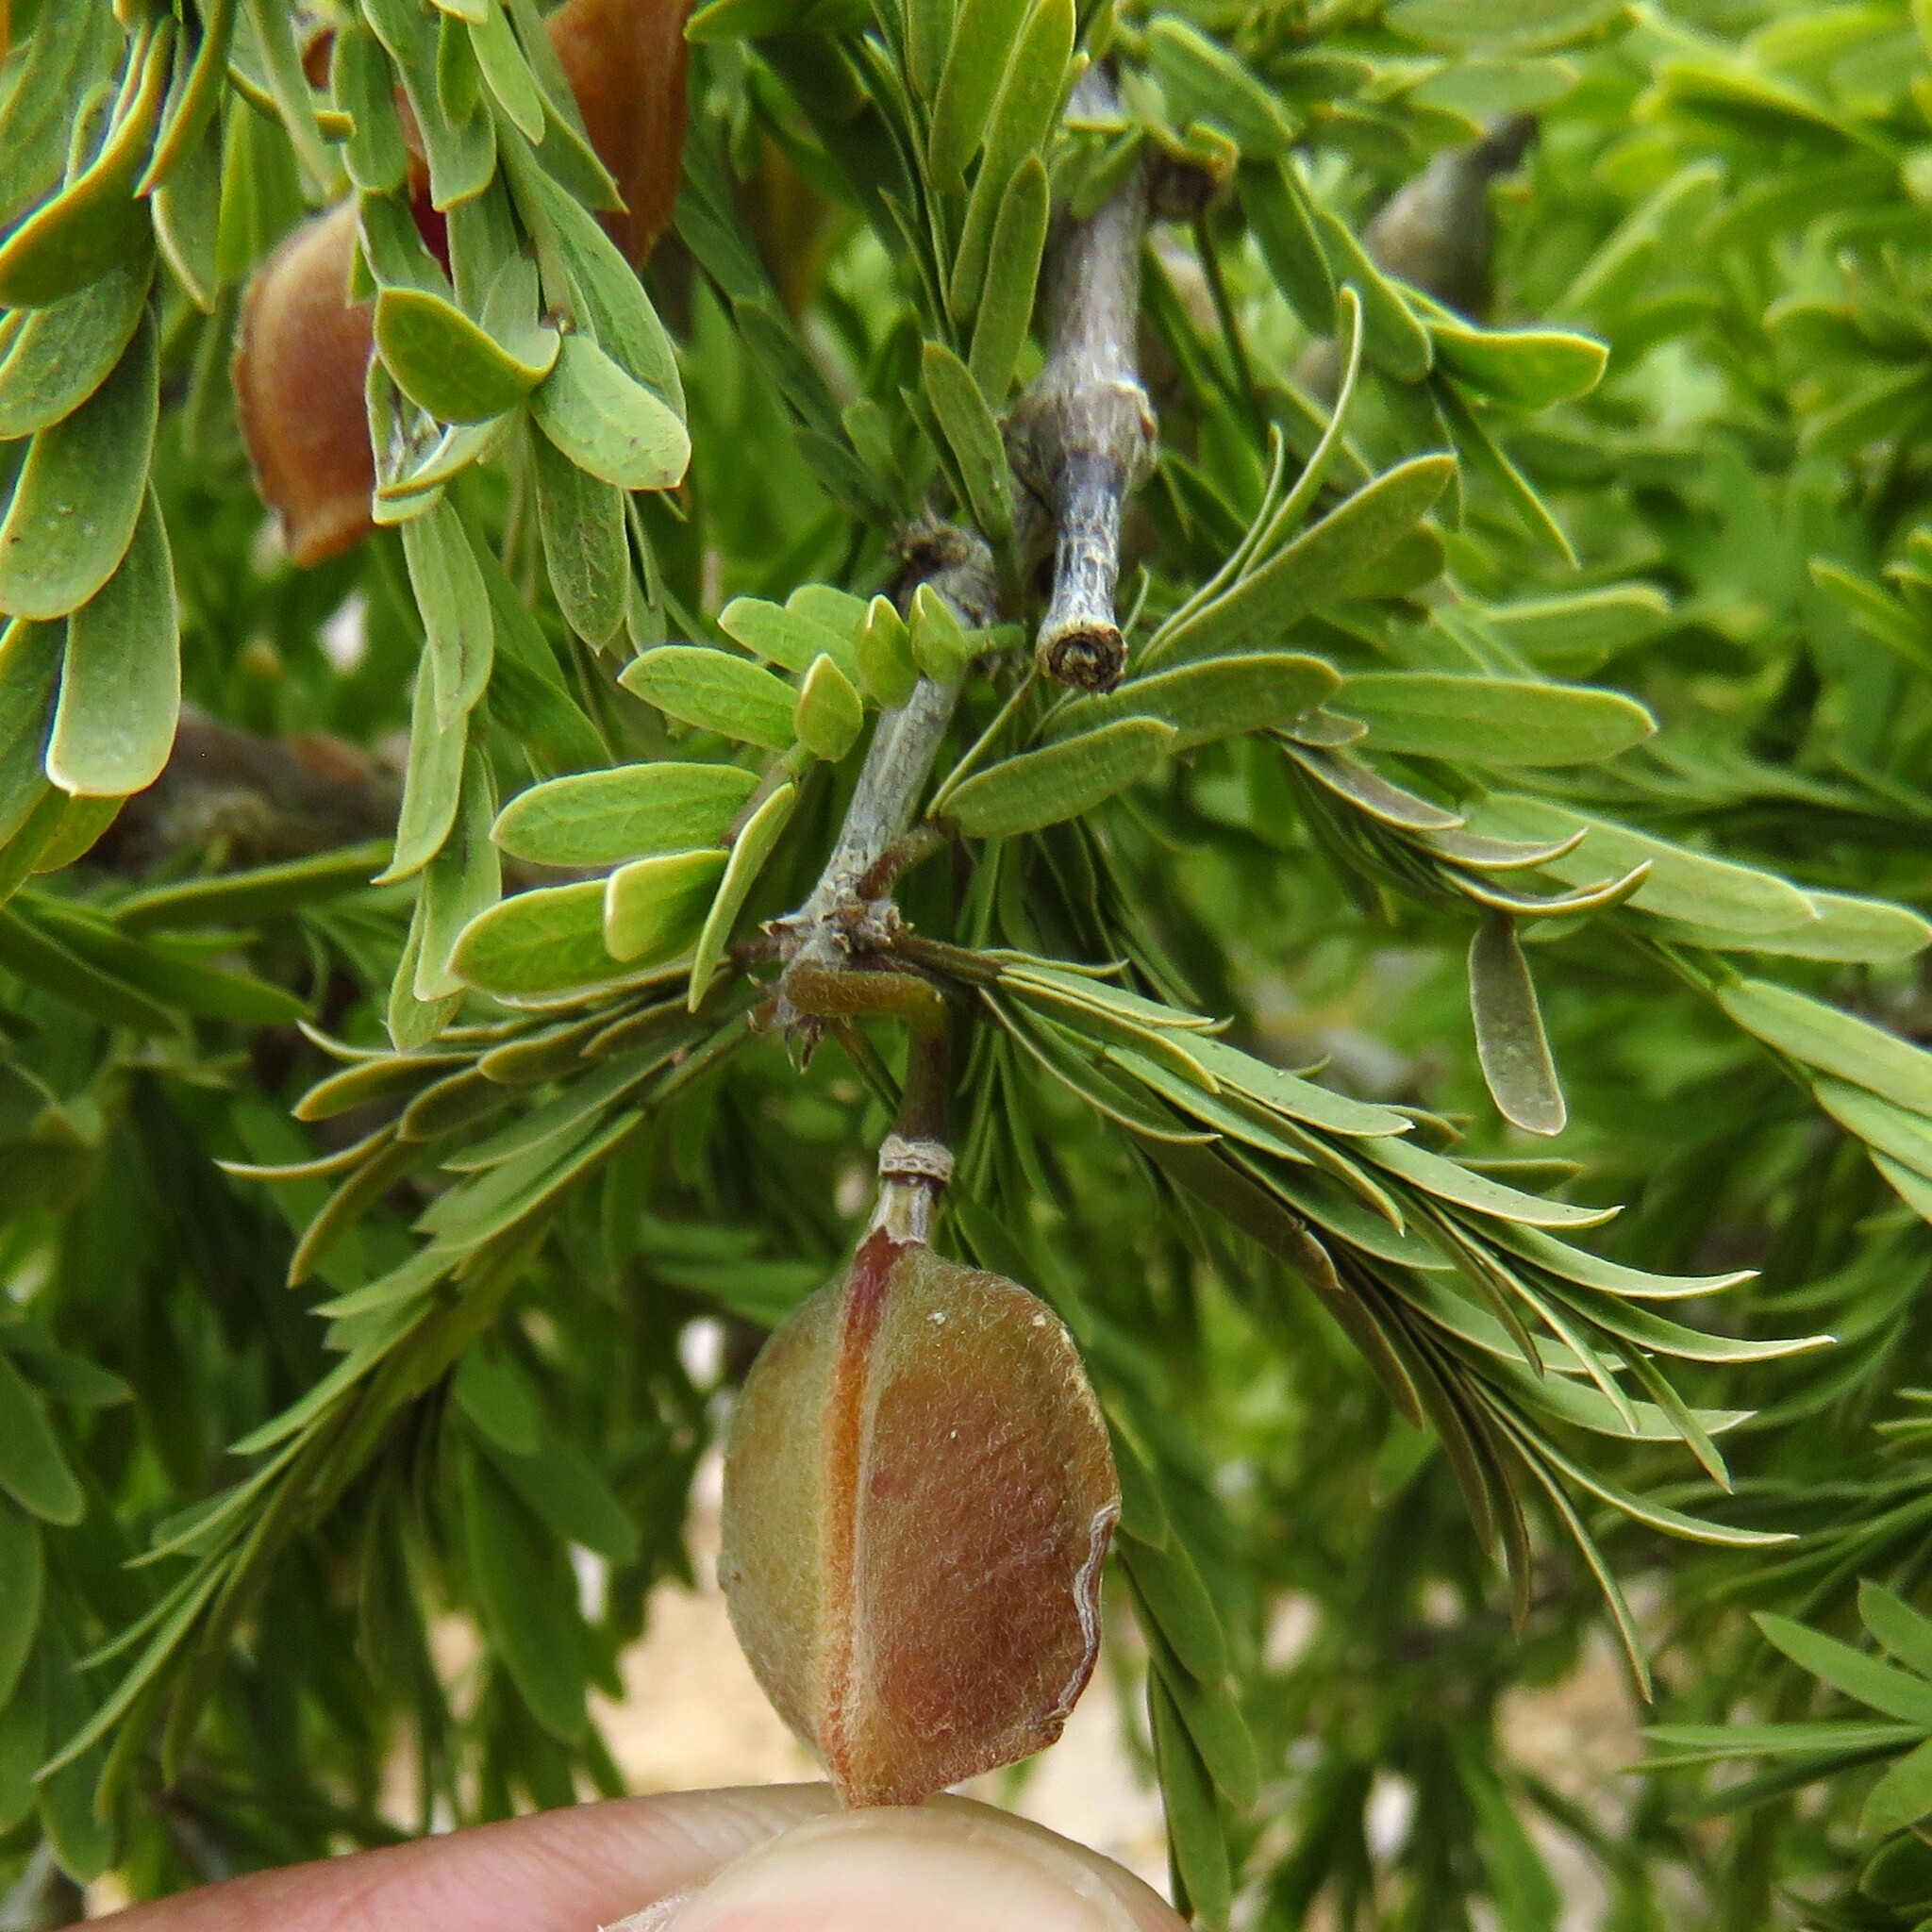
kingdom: Plantae
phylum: Tracheophyta
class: Magnoliopsida
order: Zygophyllales
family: Zygophyllaceae
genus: Porlieria
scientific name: Porlieria angustifolia
